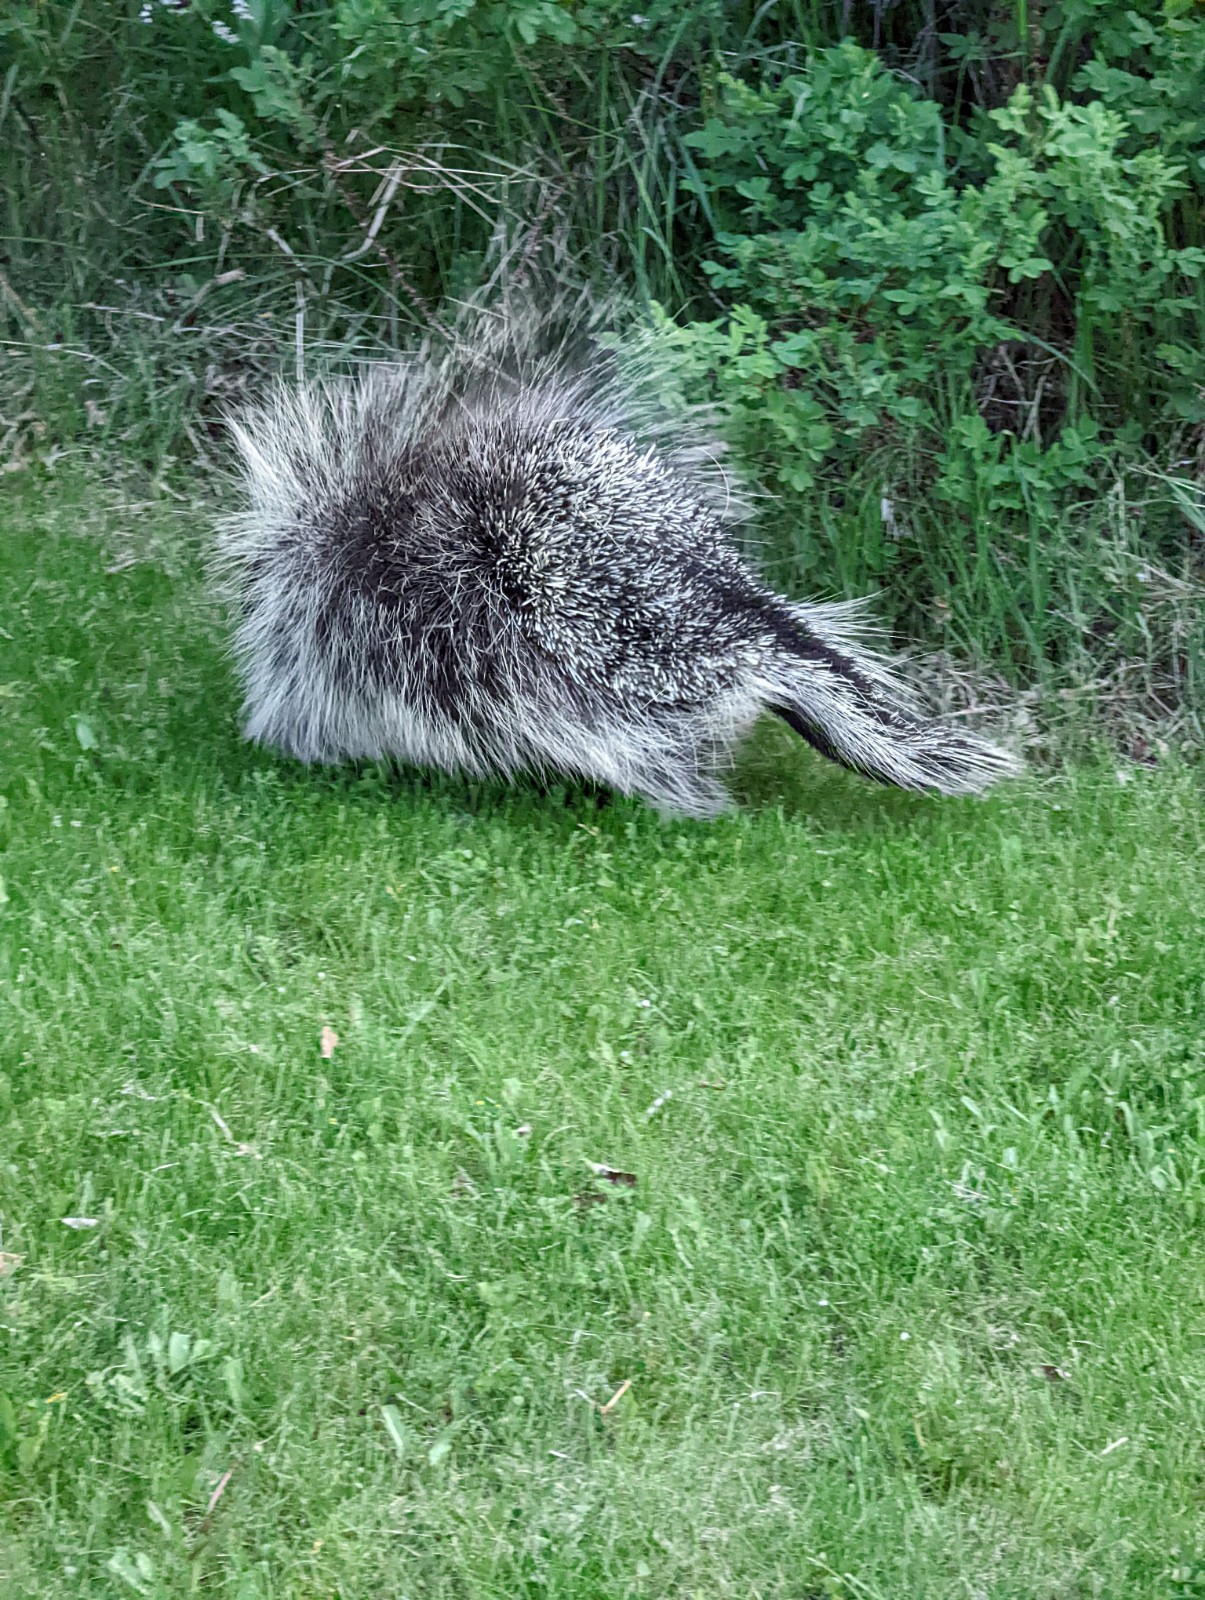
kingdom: Animalia
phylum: Chordata
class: Mammalia
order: Rodentia
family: Erethizontidae
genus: Erethizon
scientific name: Erethizon dorsatus
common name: North american porcupine
